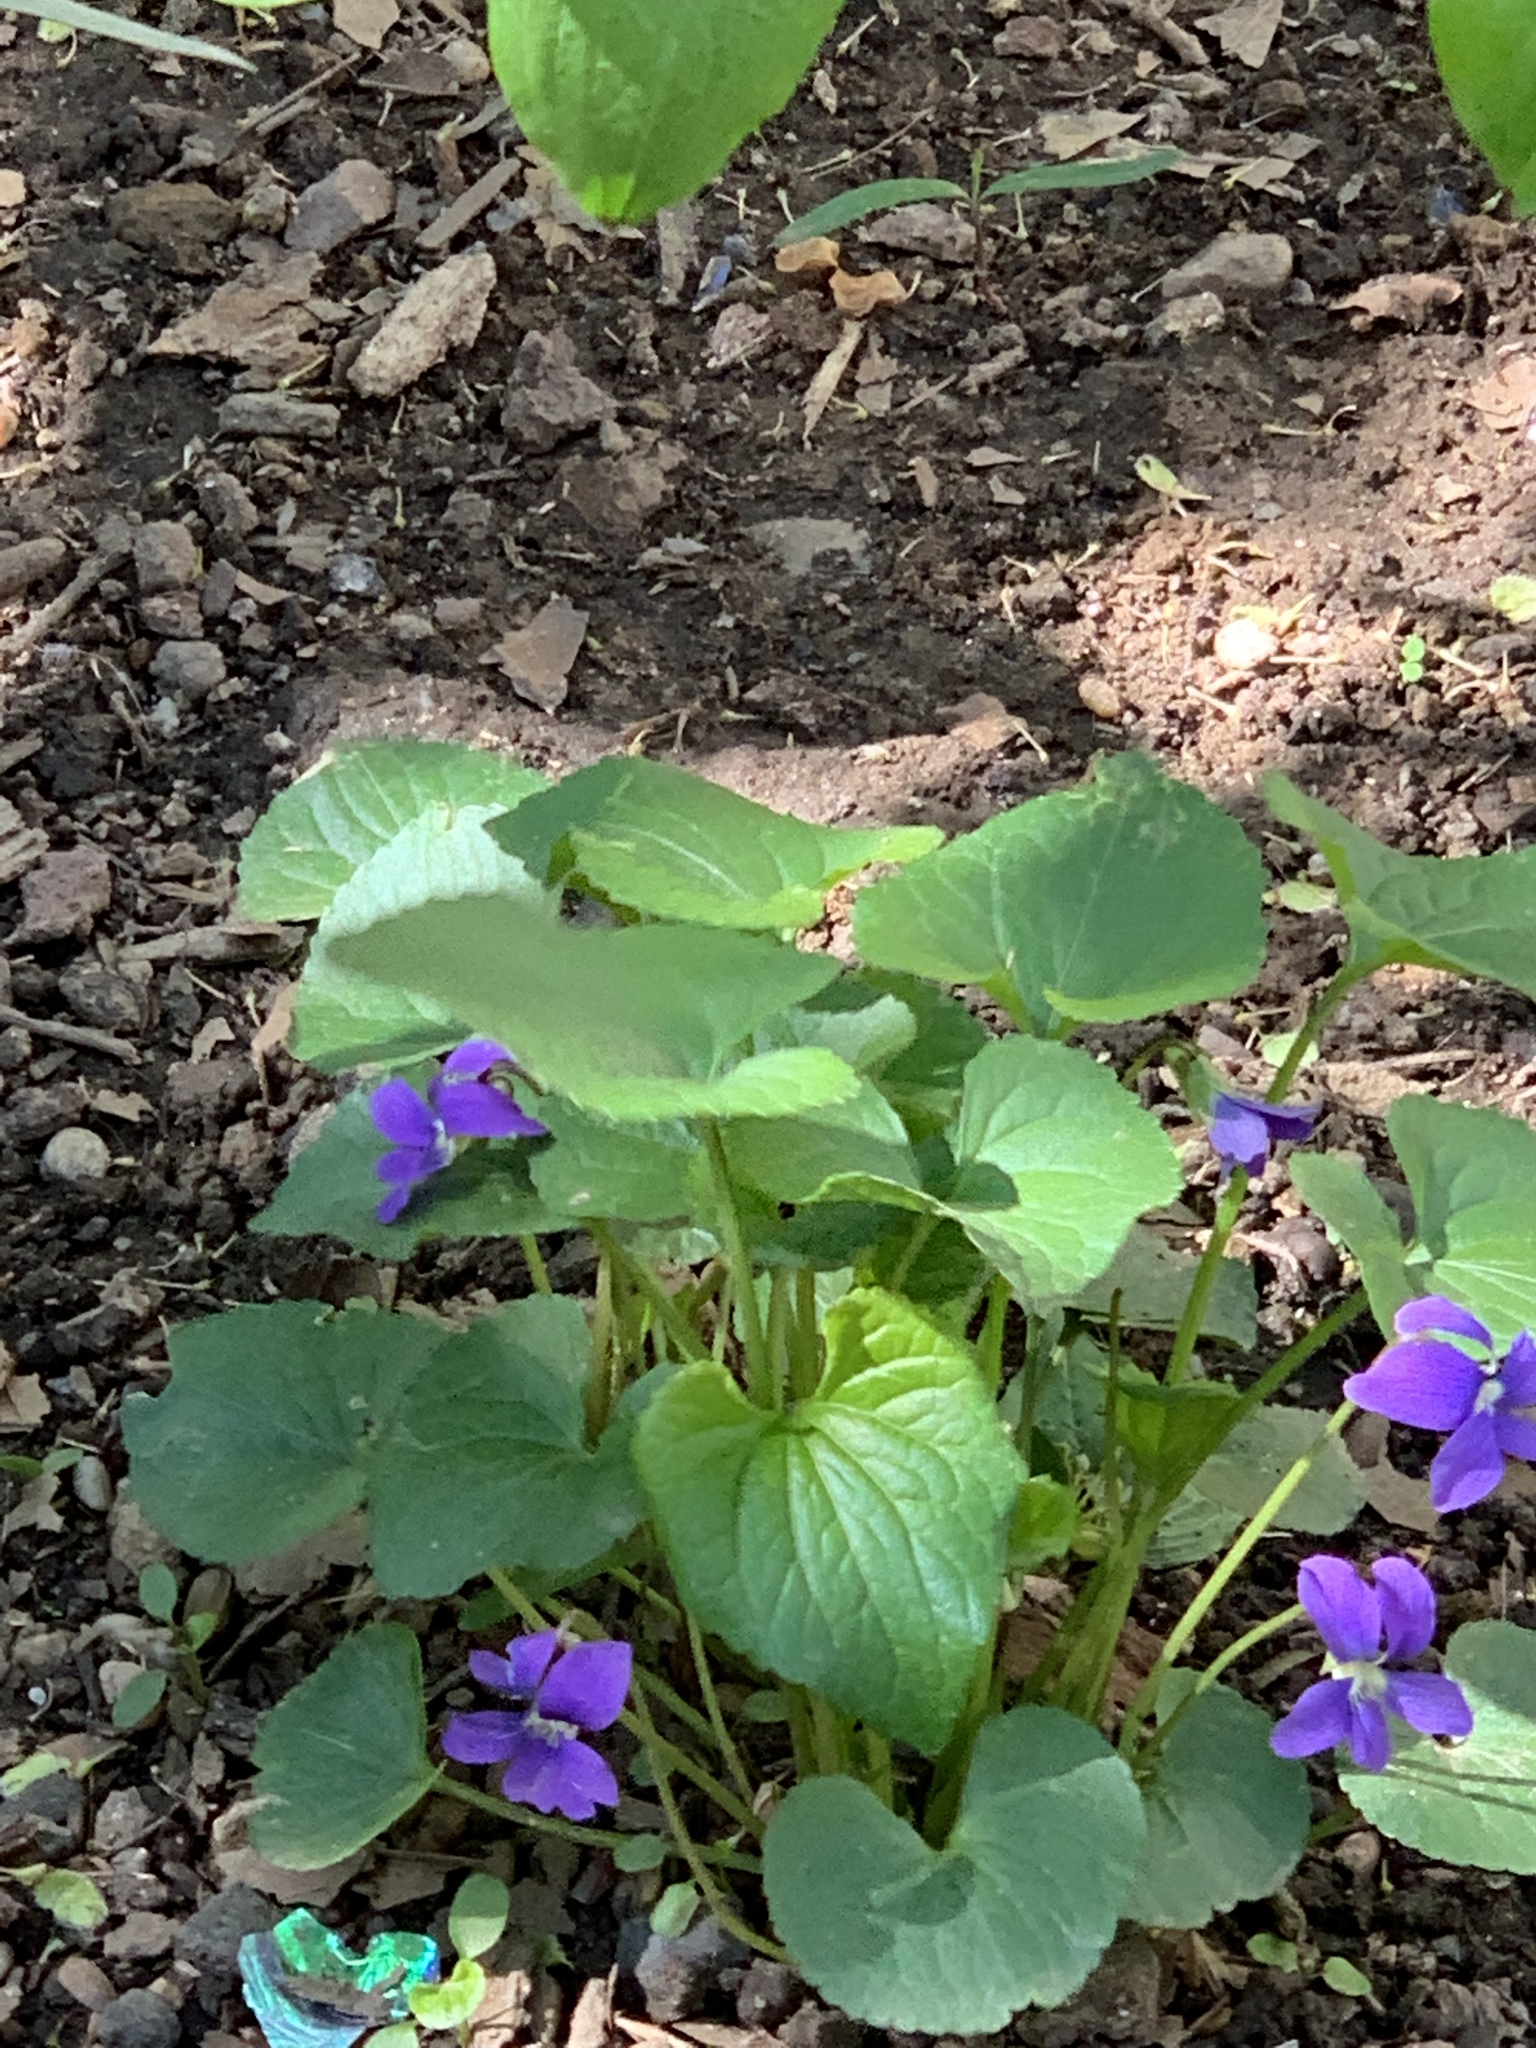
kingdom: Plantae
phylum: Tracheophyta
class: Magnoliopsida
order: Malpighiales
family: Violaceae
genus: Viola
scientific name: Viola sororia
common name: Dooryard violet
